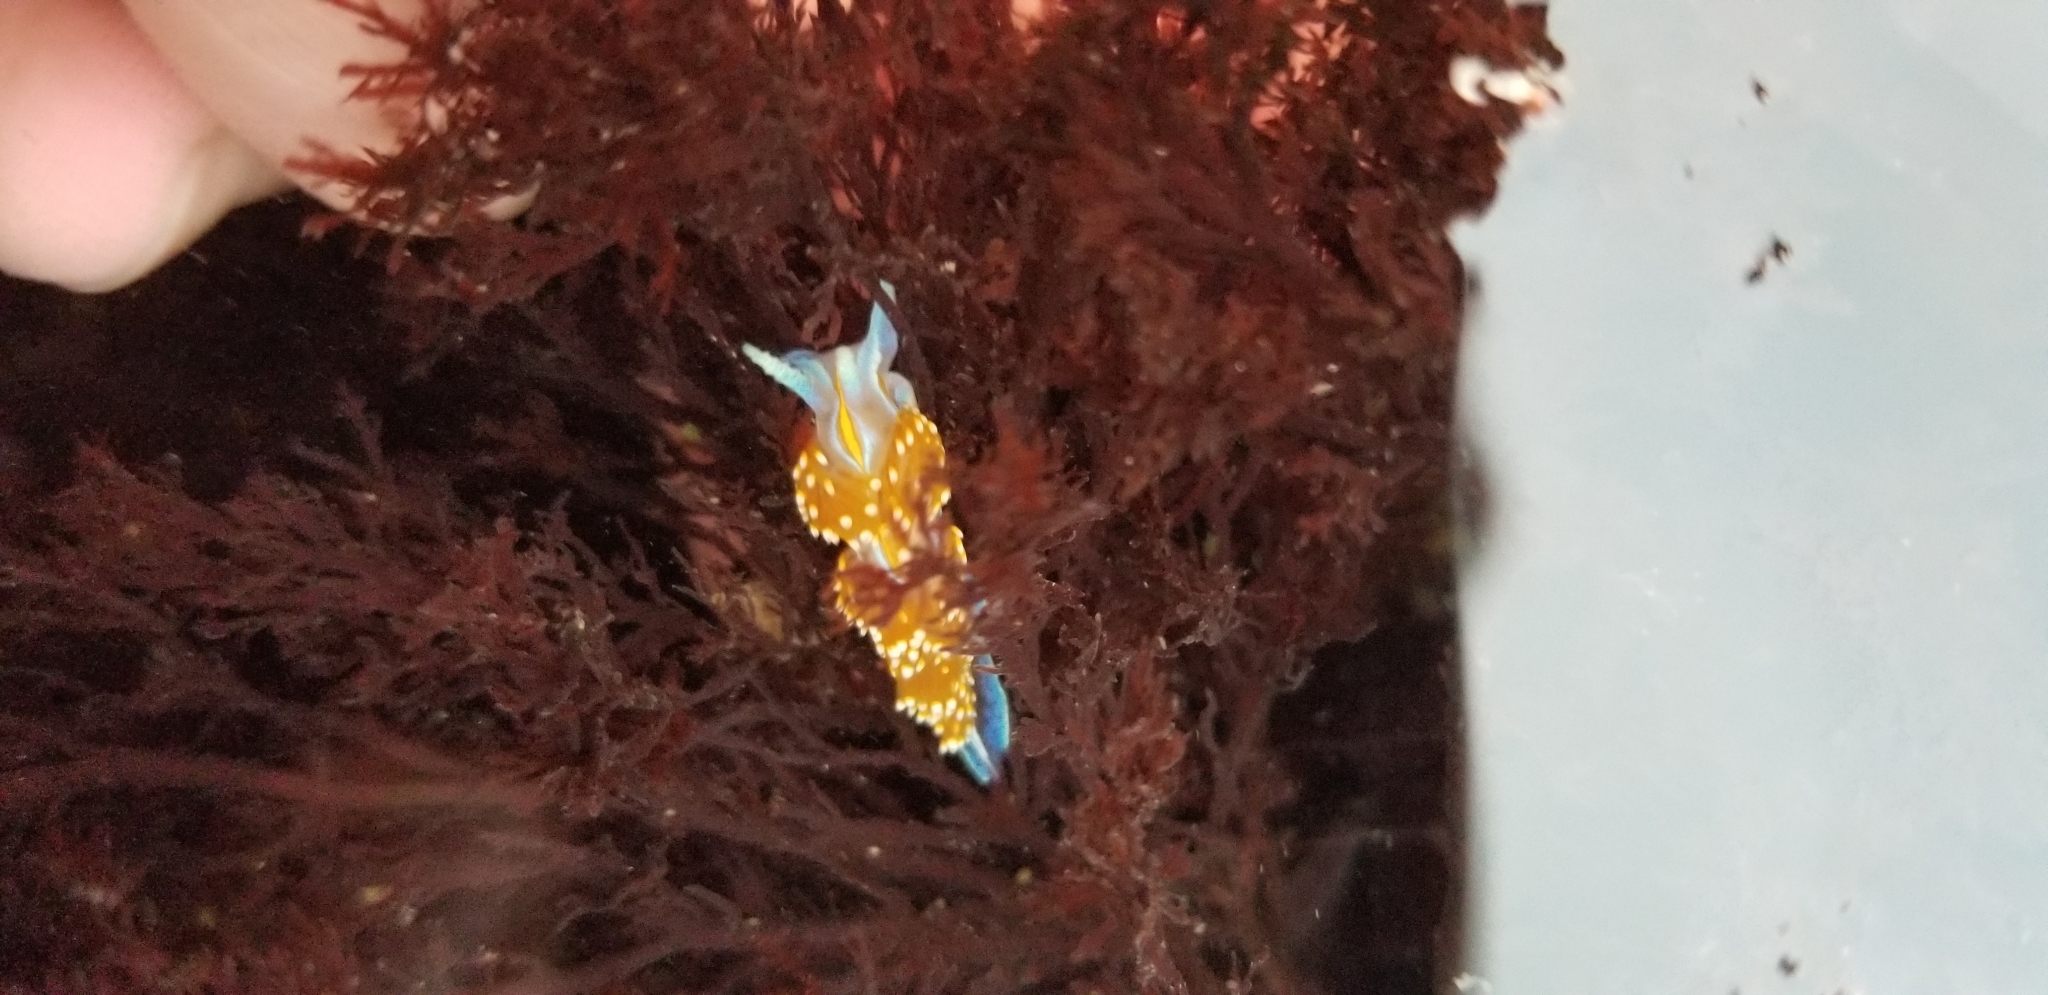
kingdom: Animalia
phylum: Mollusca
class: Gastropoda
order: Nudibranchia
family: Myrrhinidae
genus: Hermissenda
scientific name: Hermissenda opalescens
